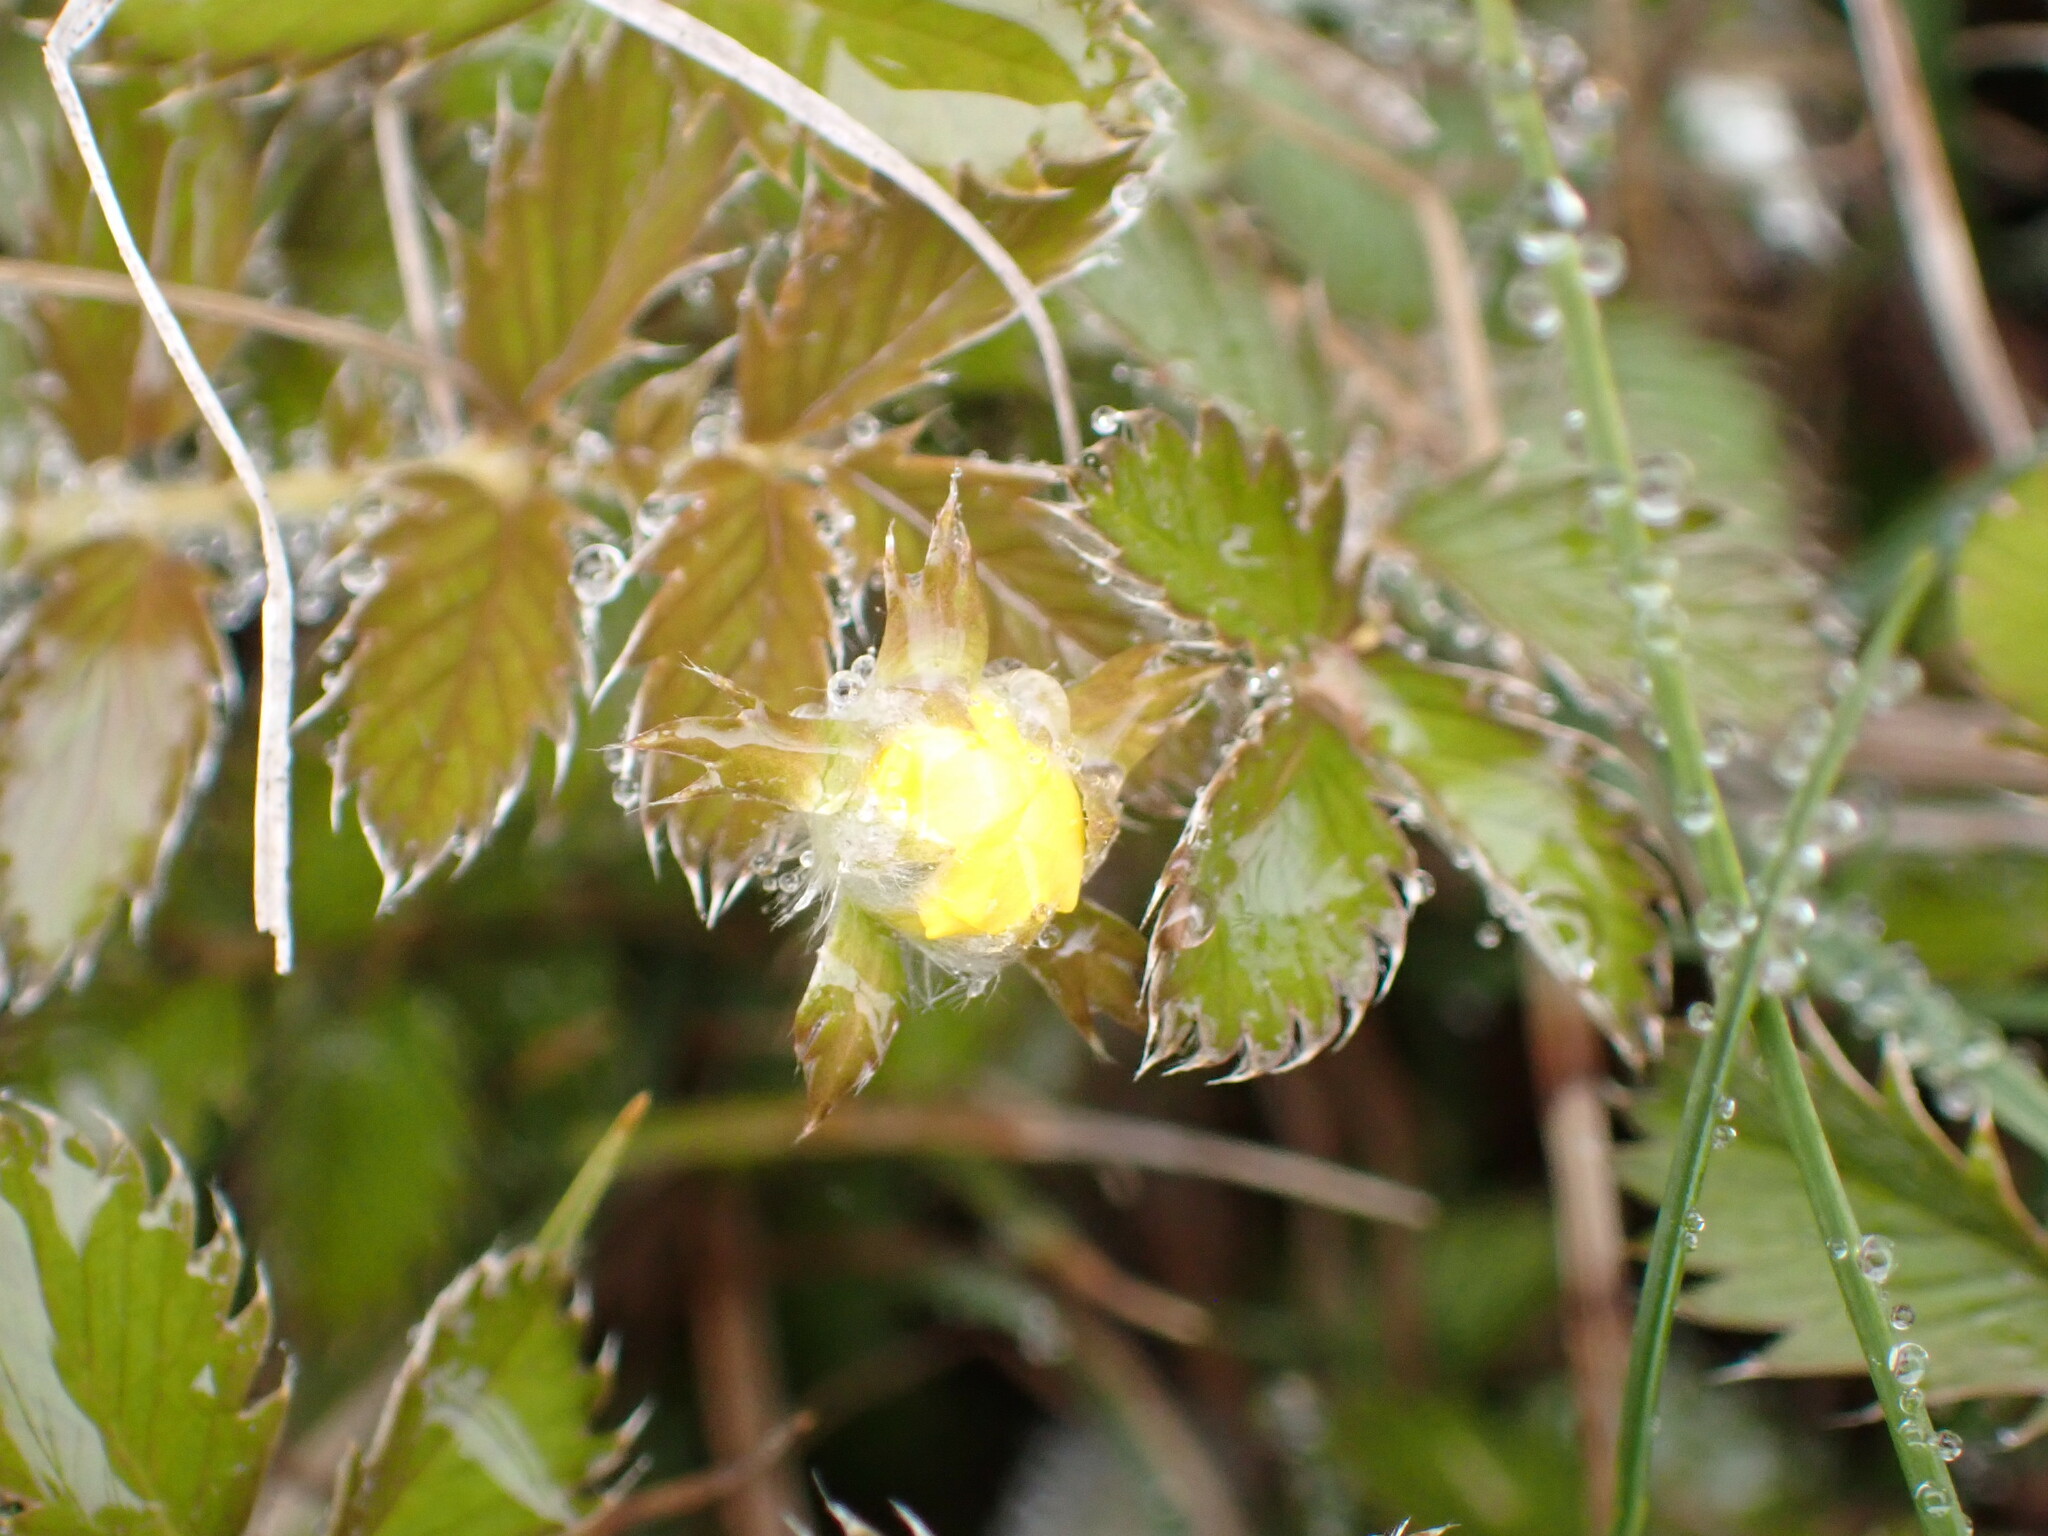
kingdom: Plantae
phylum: Tracheophyta
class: Magnoliopsida
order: Rosales
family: Rosaceae
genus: Argentina
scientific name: Argentina anserinoides
